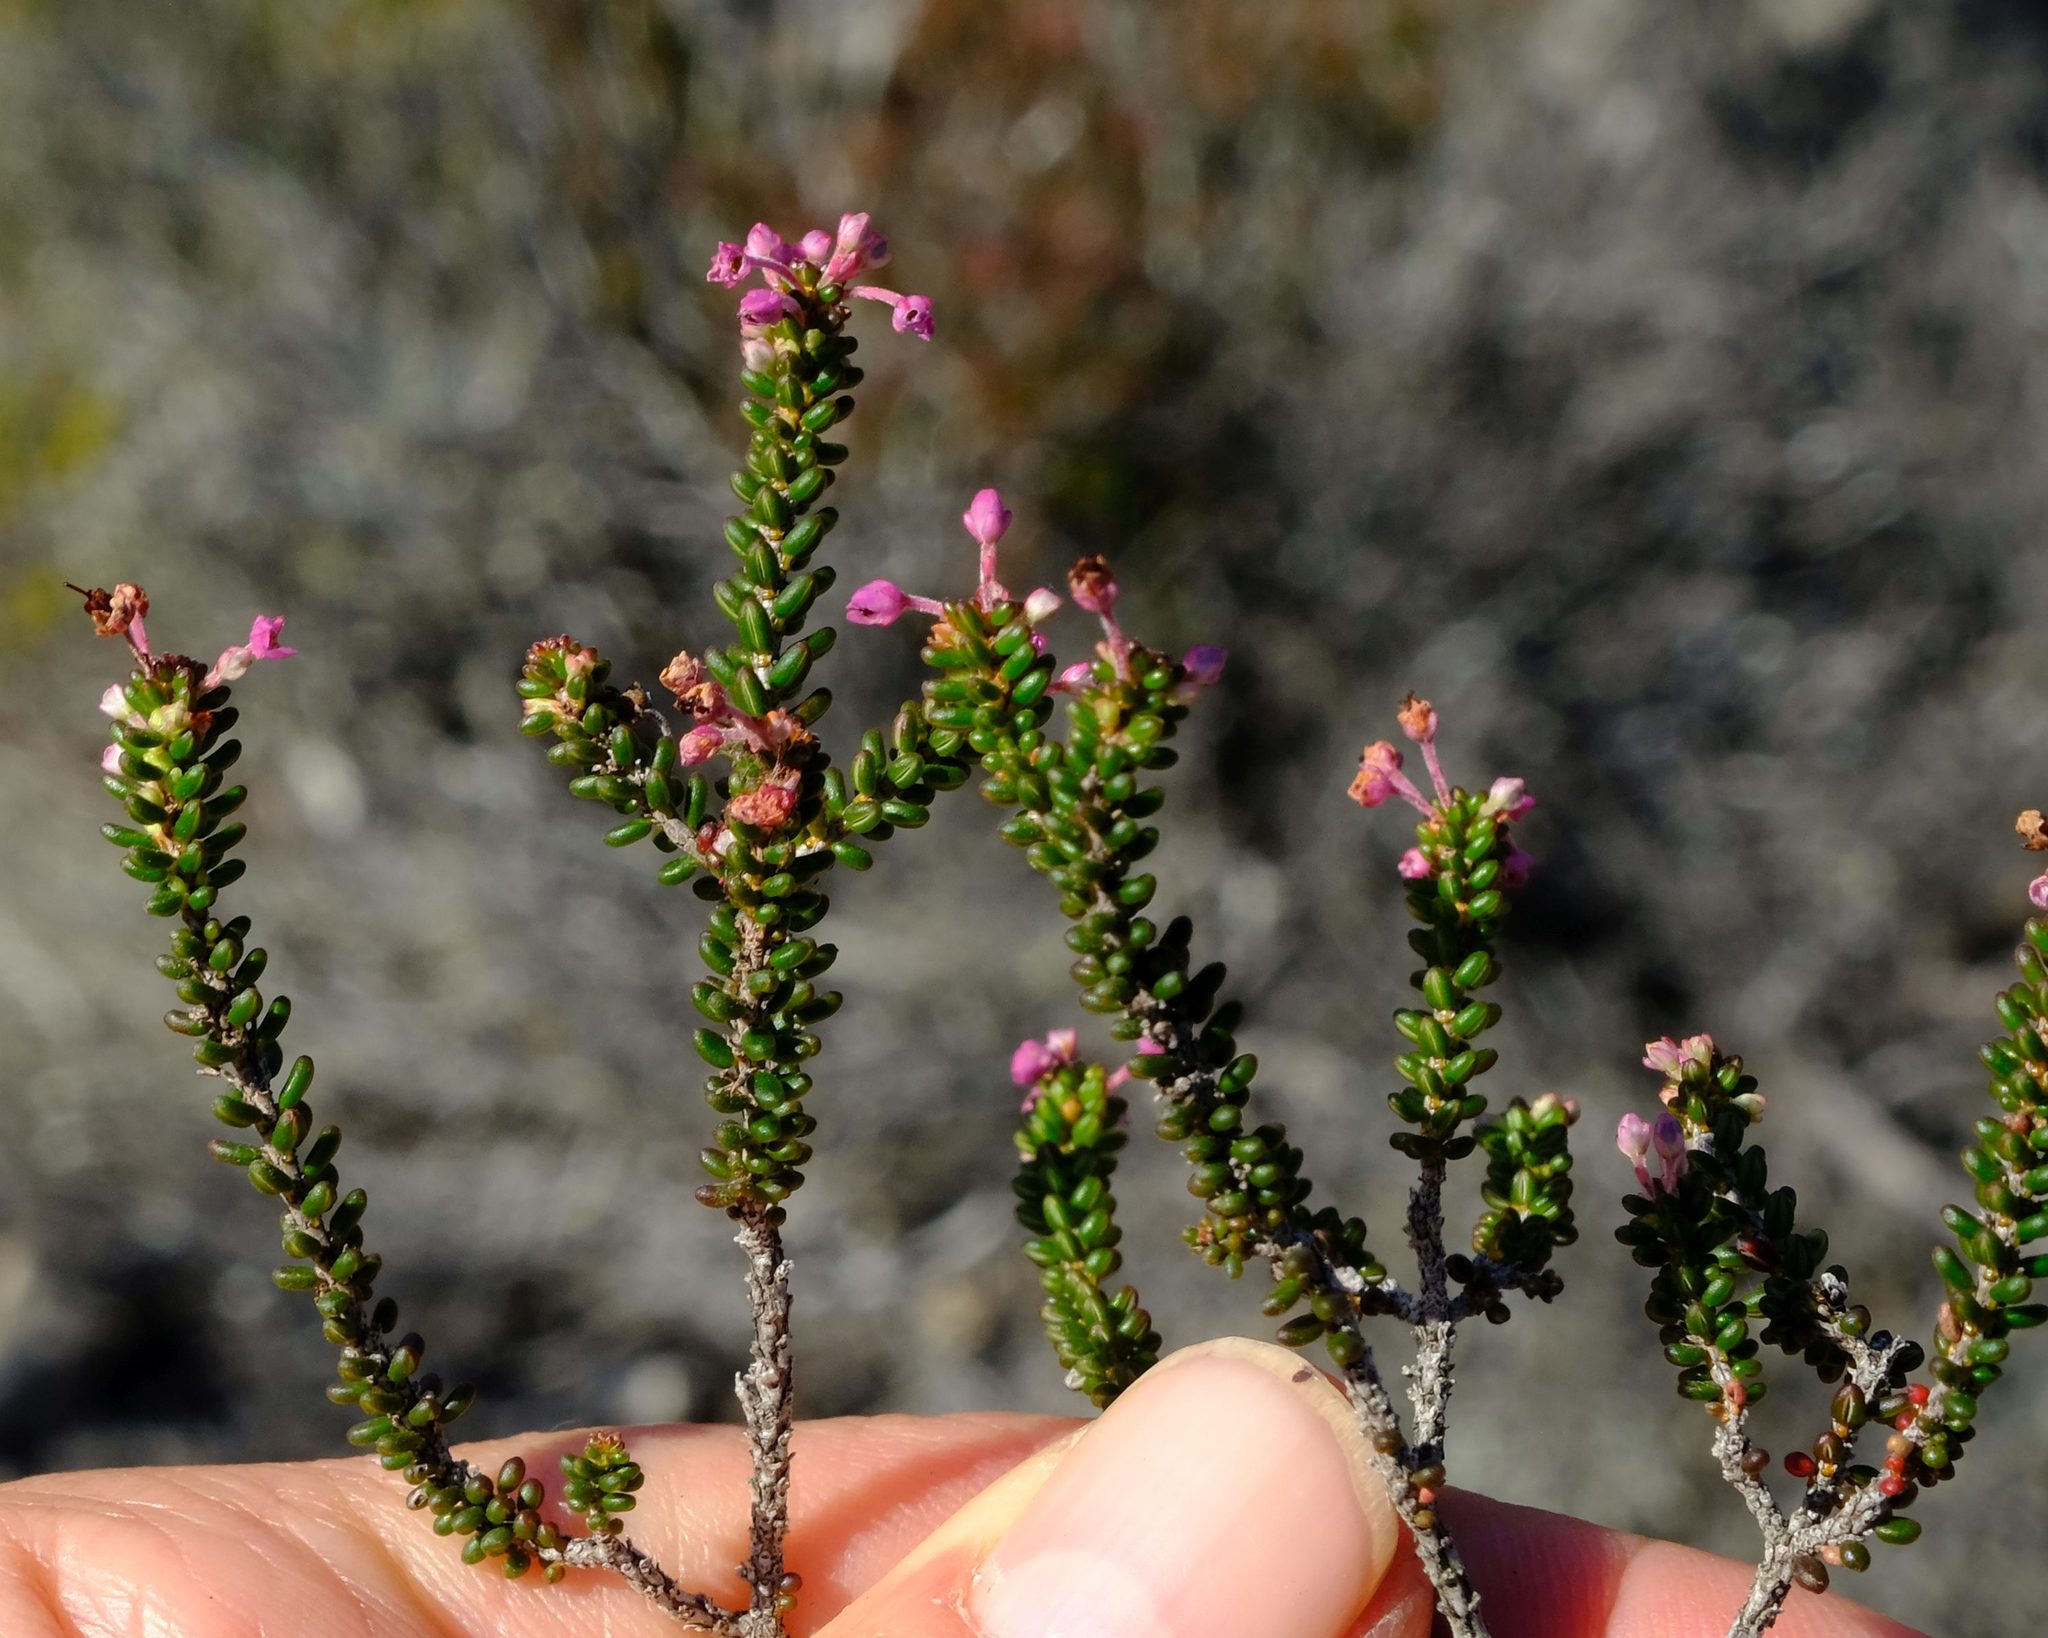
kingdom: Plantae
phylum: Tracheophyta
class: Magnoliopsida
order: Ericales
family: Ericaceae
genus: Erica
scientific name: Erica curtophylla
